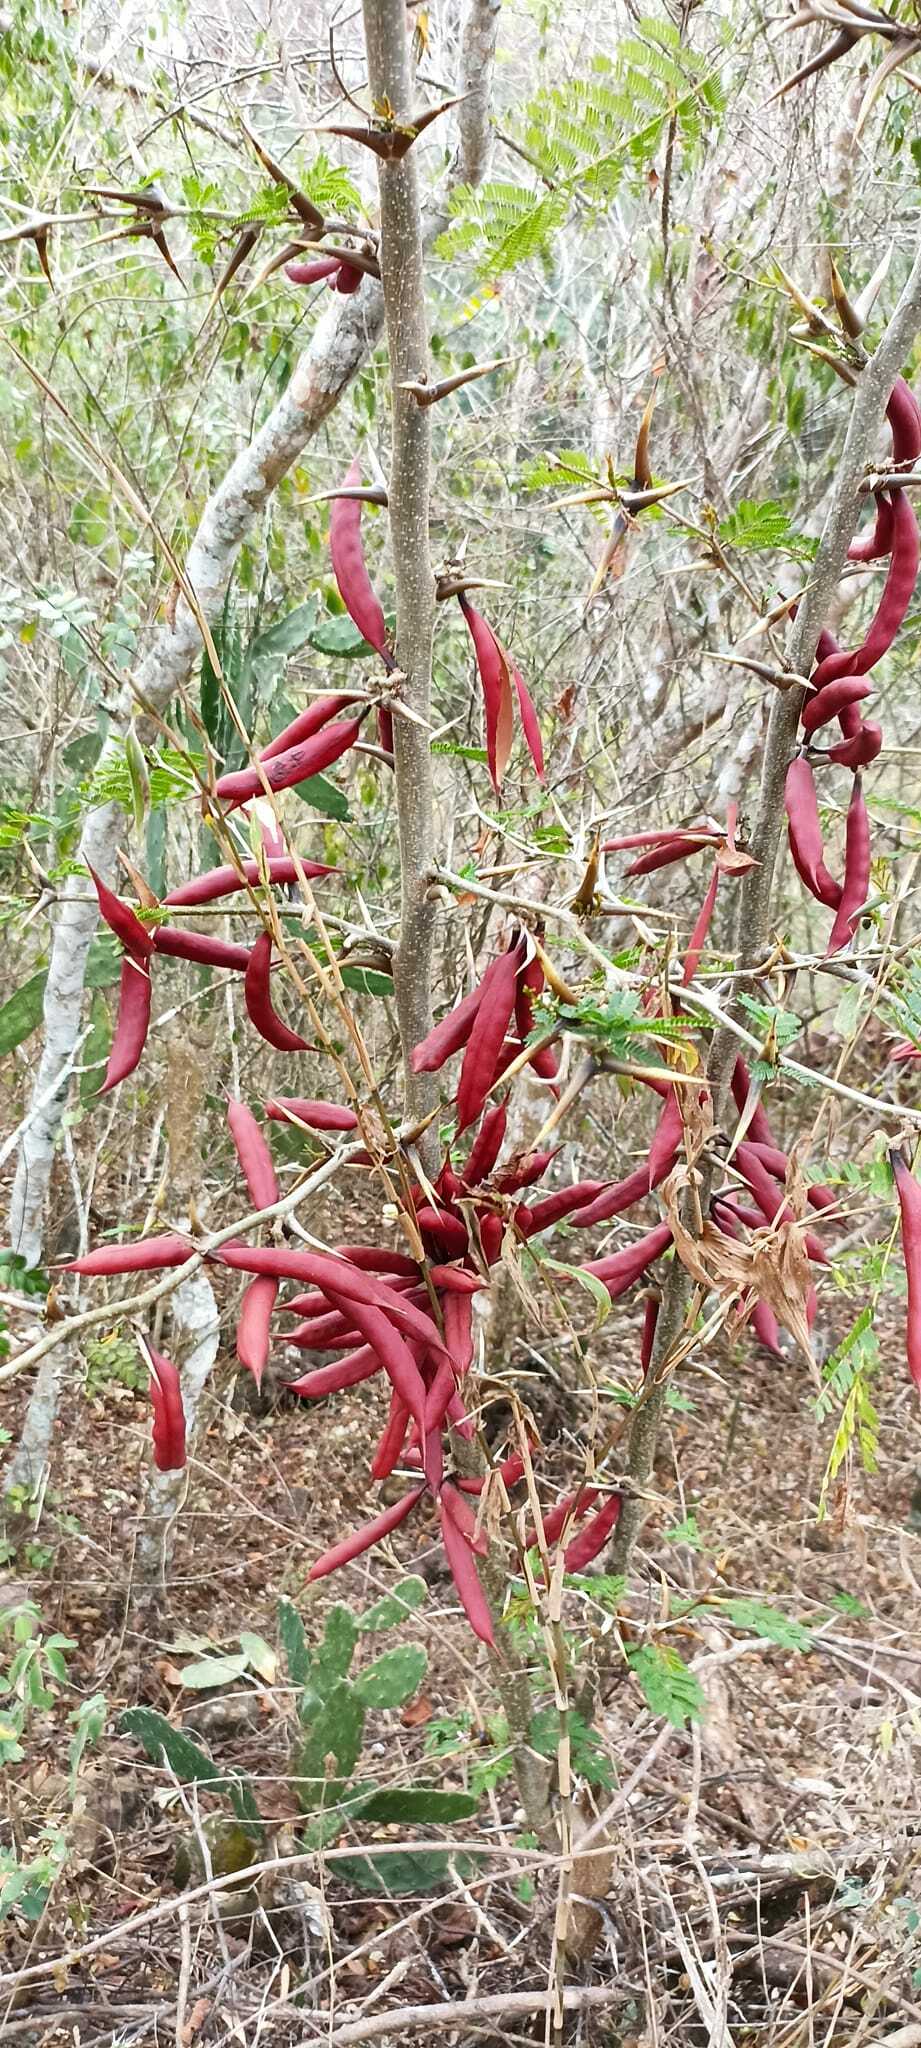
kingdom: Plantae
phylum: Tracheophyta
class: Magnoliopsida
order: Fabales
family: Fabaceae
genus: Vachellia
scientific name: Vachellia cornigera
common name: Bullhorn wattle
